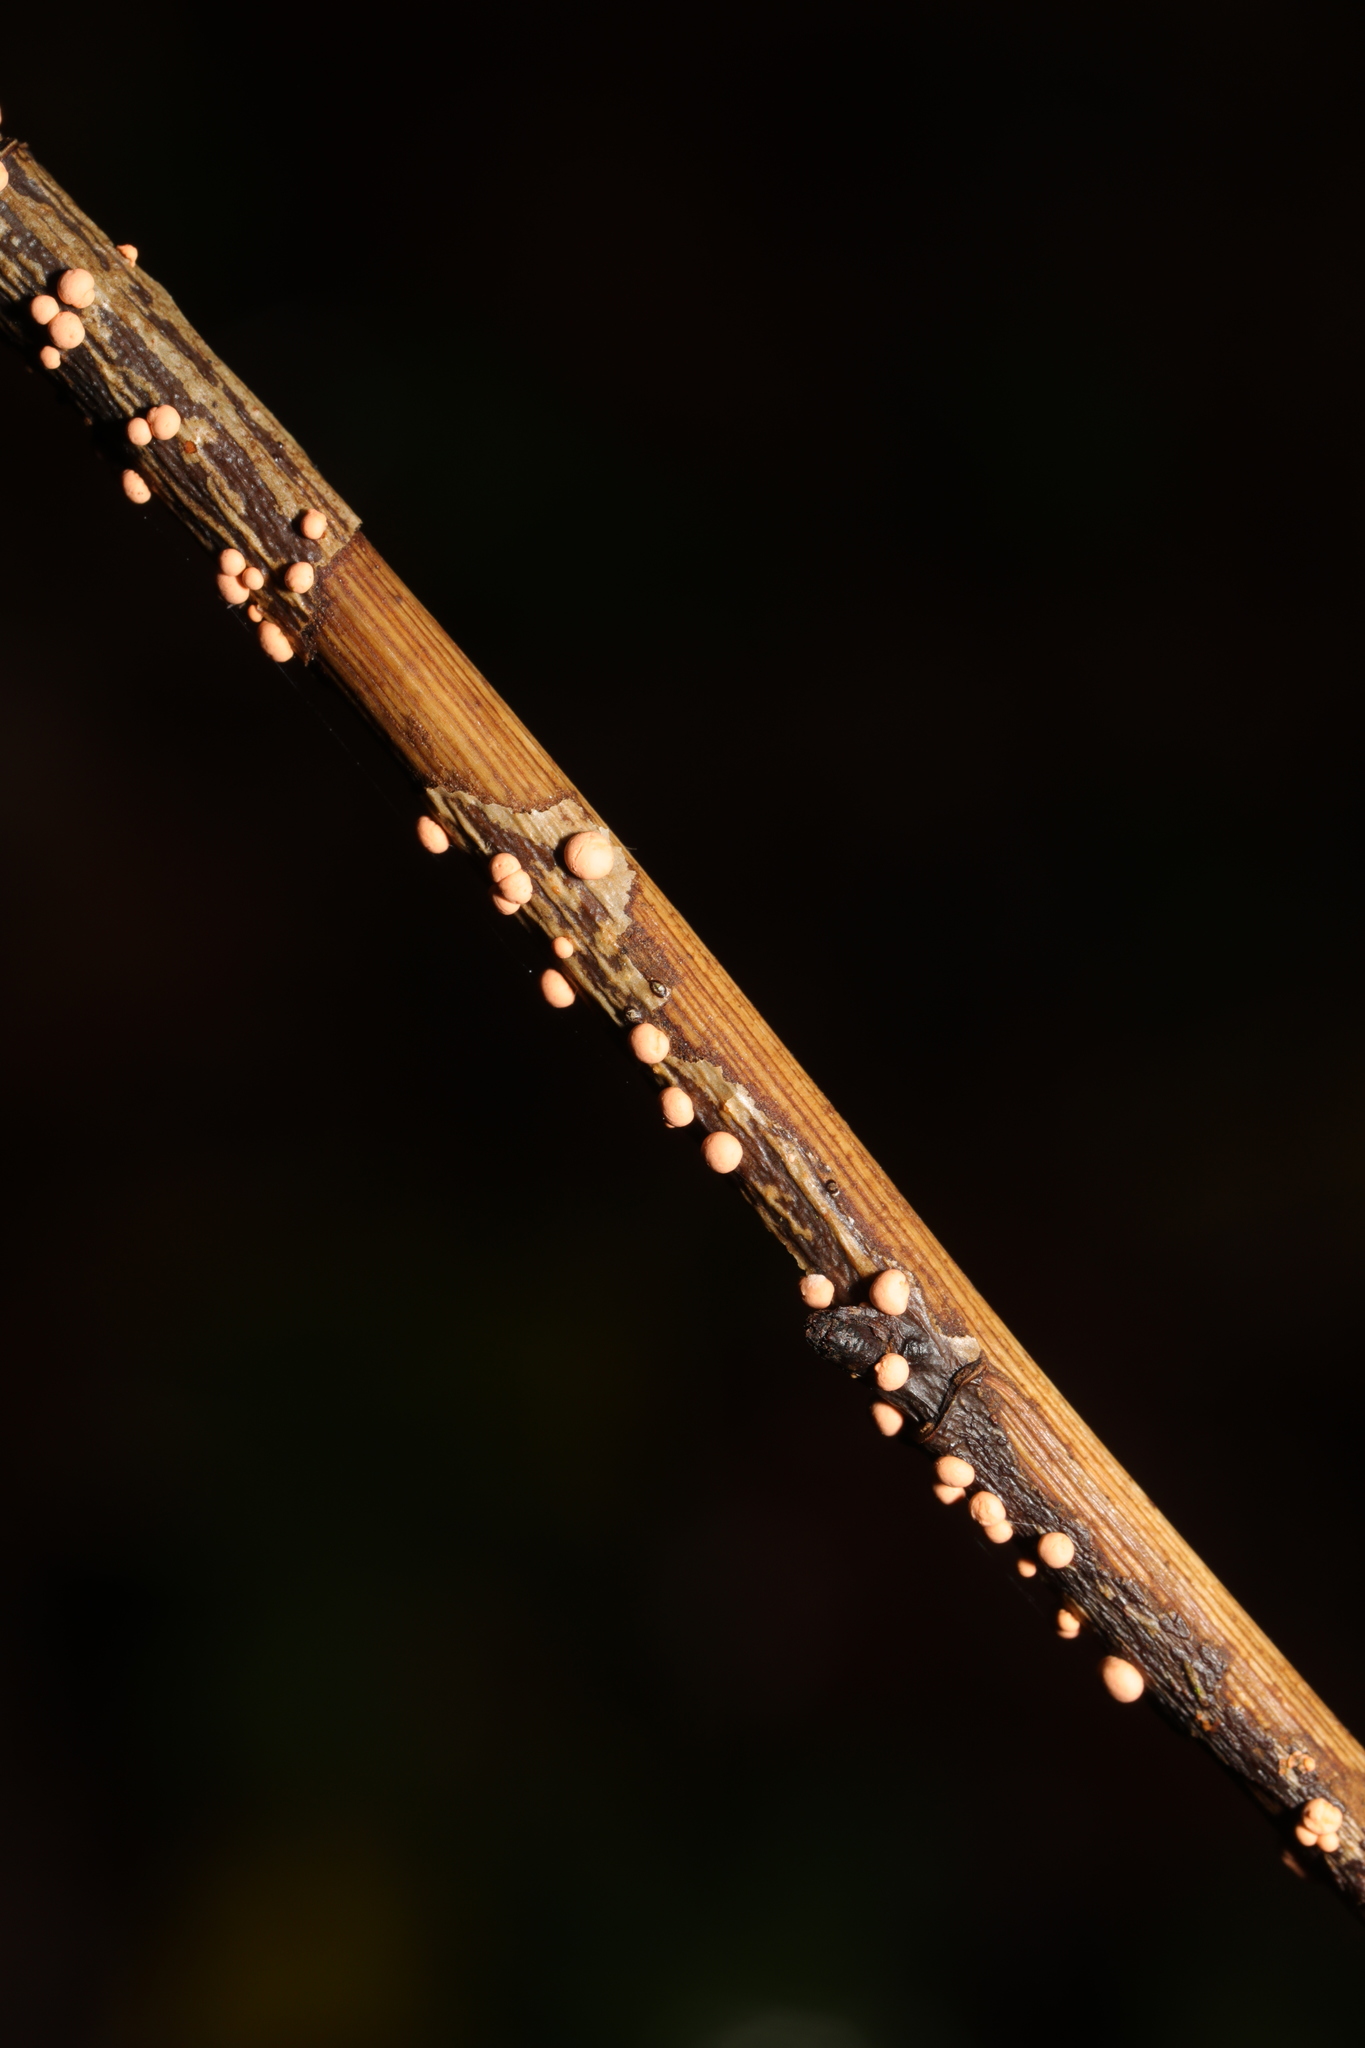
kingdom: Fungi
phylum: Ascomycota
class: Sordariomycetes
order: Hypocreales
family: Nectriaceae
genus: Nectria
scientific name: Nectria cinnabarina
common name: Coral spot
